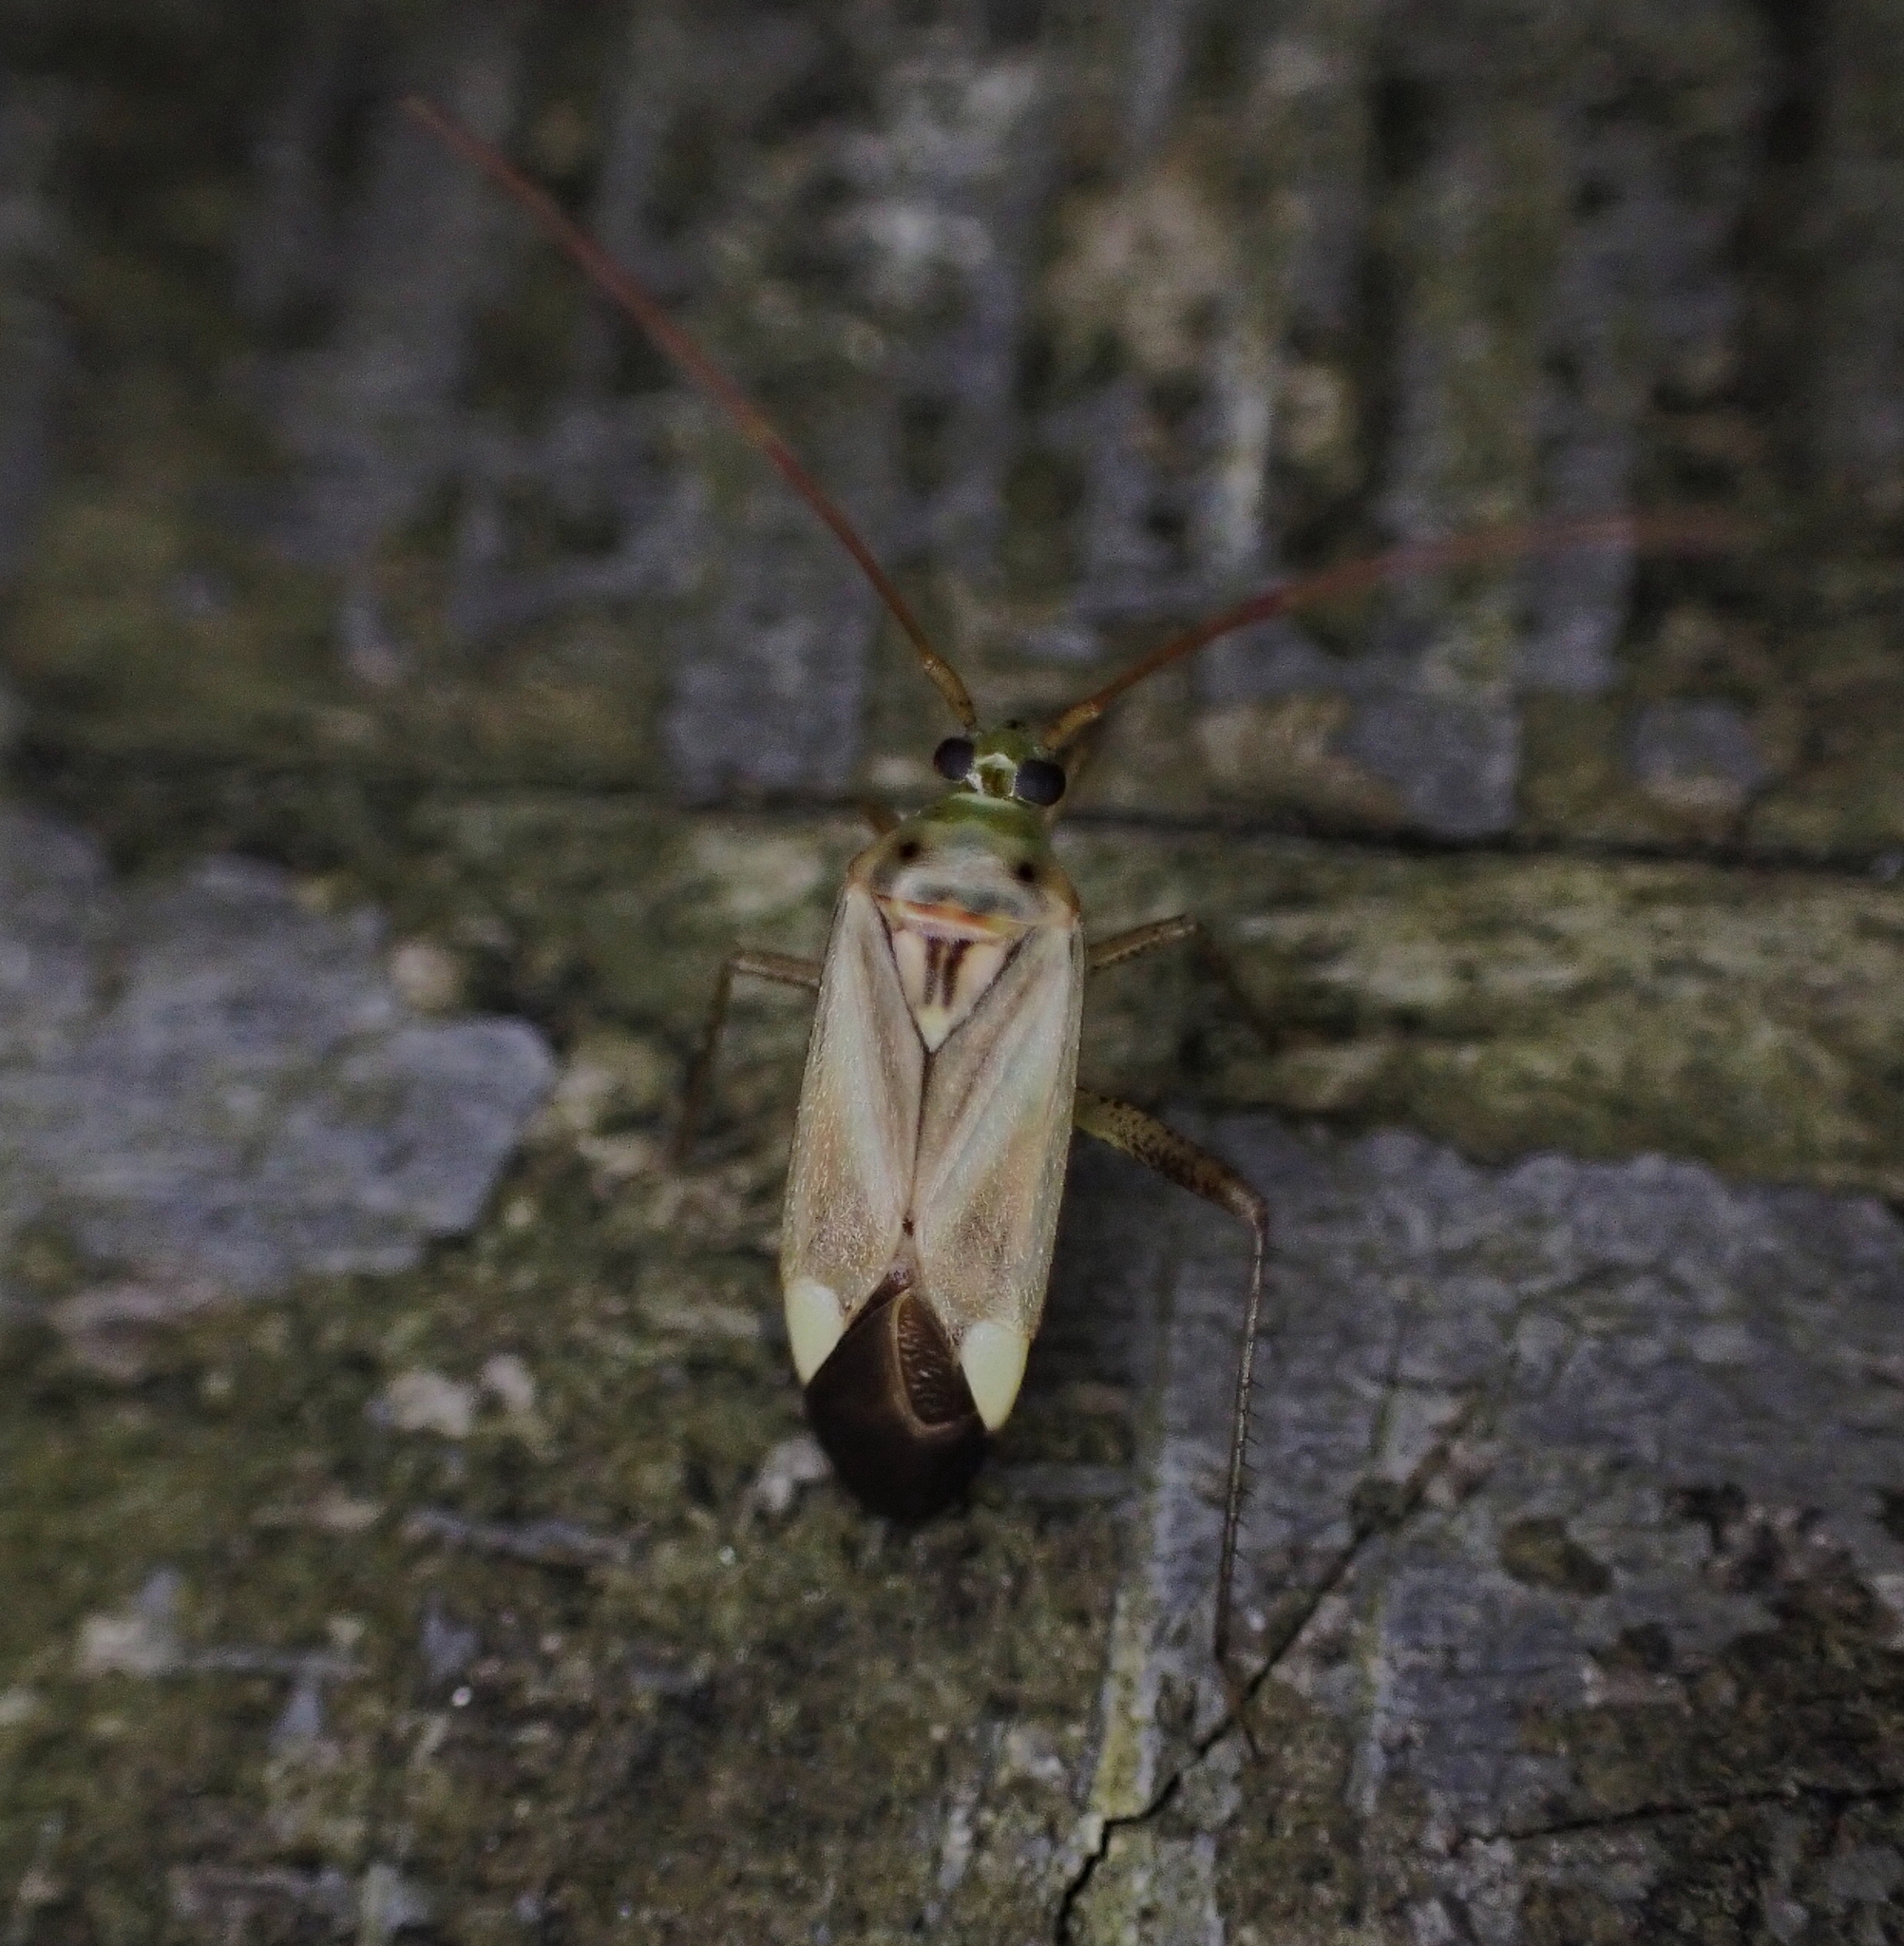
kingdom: Animalia
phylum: Arthropoda
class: Insecta
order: Hemiptera
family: Miridae
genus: Adelphocoris
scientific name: Adelphocoris lineolatus
